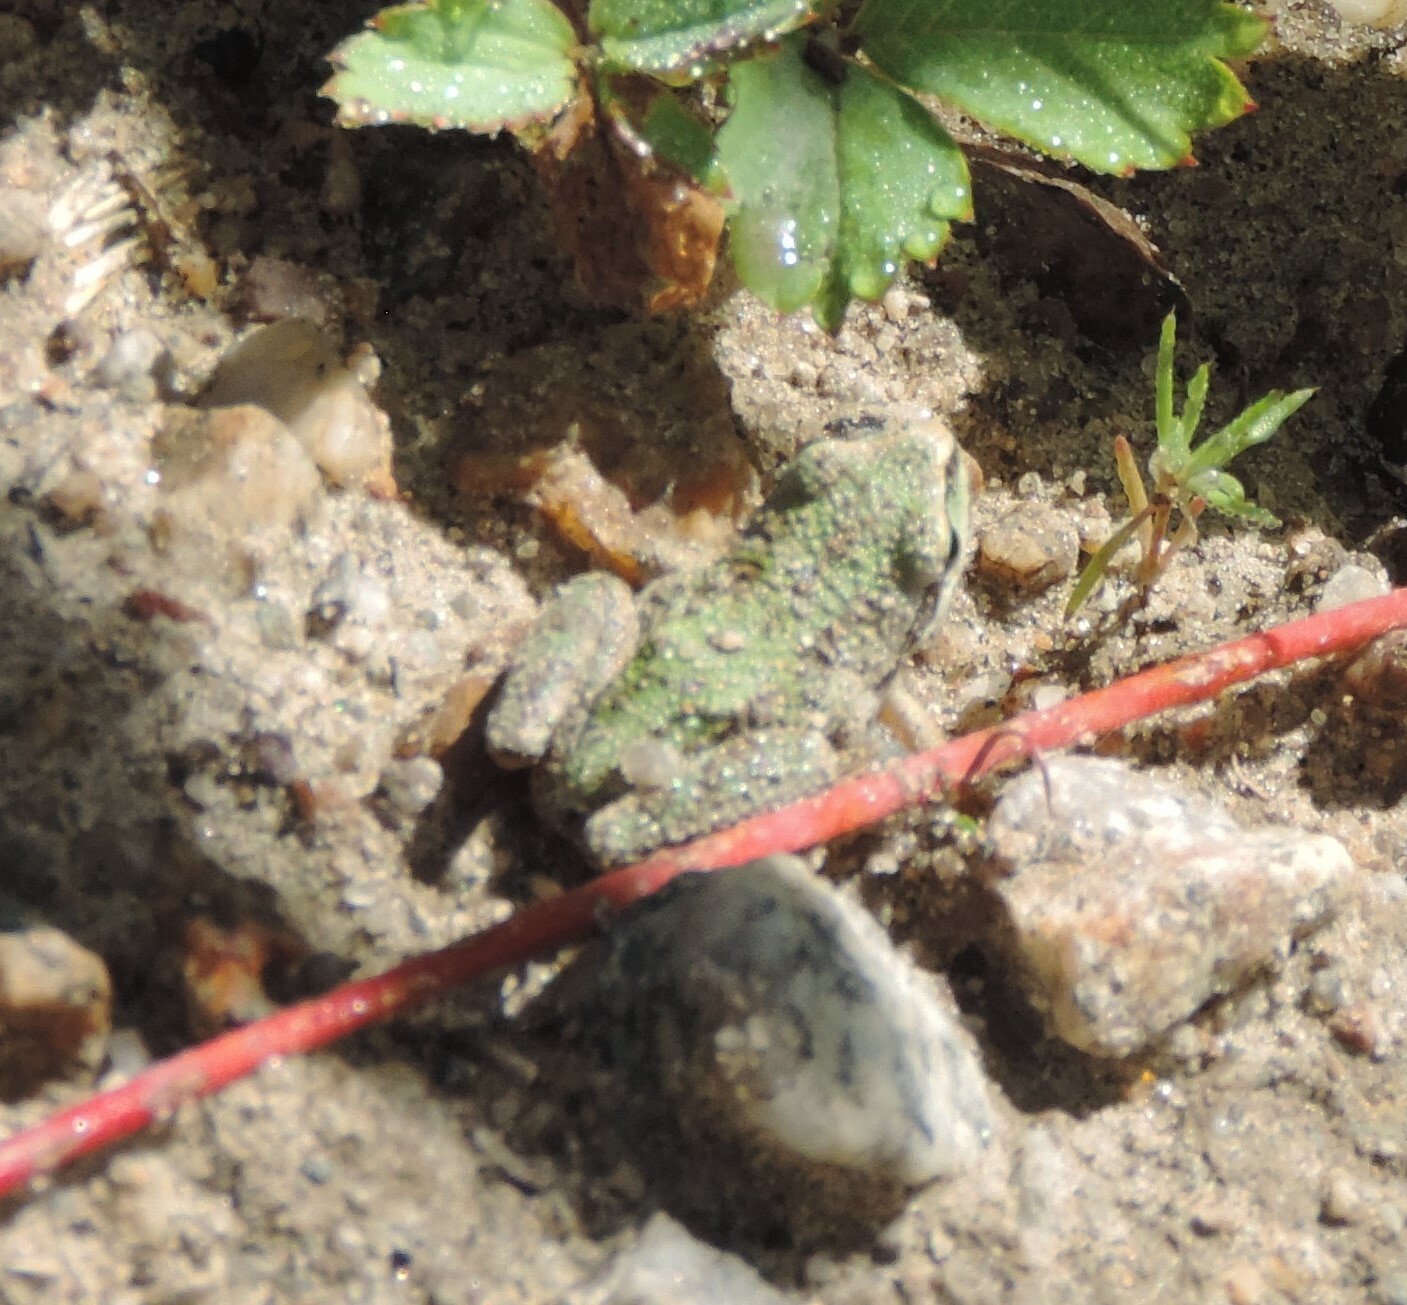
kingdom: Animalia
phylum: Chordata
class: Amphibia
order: Anura
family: Hylidae
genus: Pseudacris
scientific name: Pseudacris regilla
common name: Pacific chorus frog
